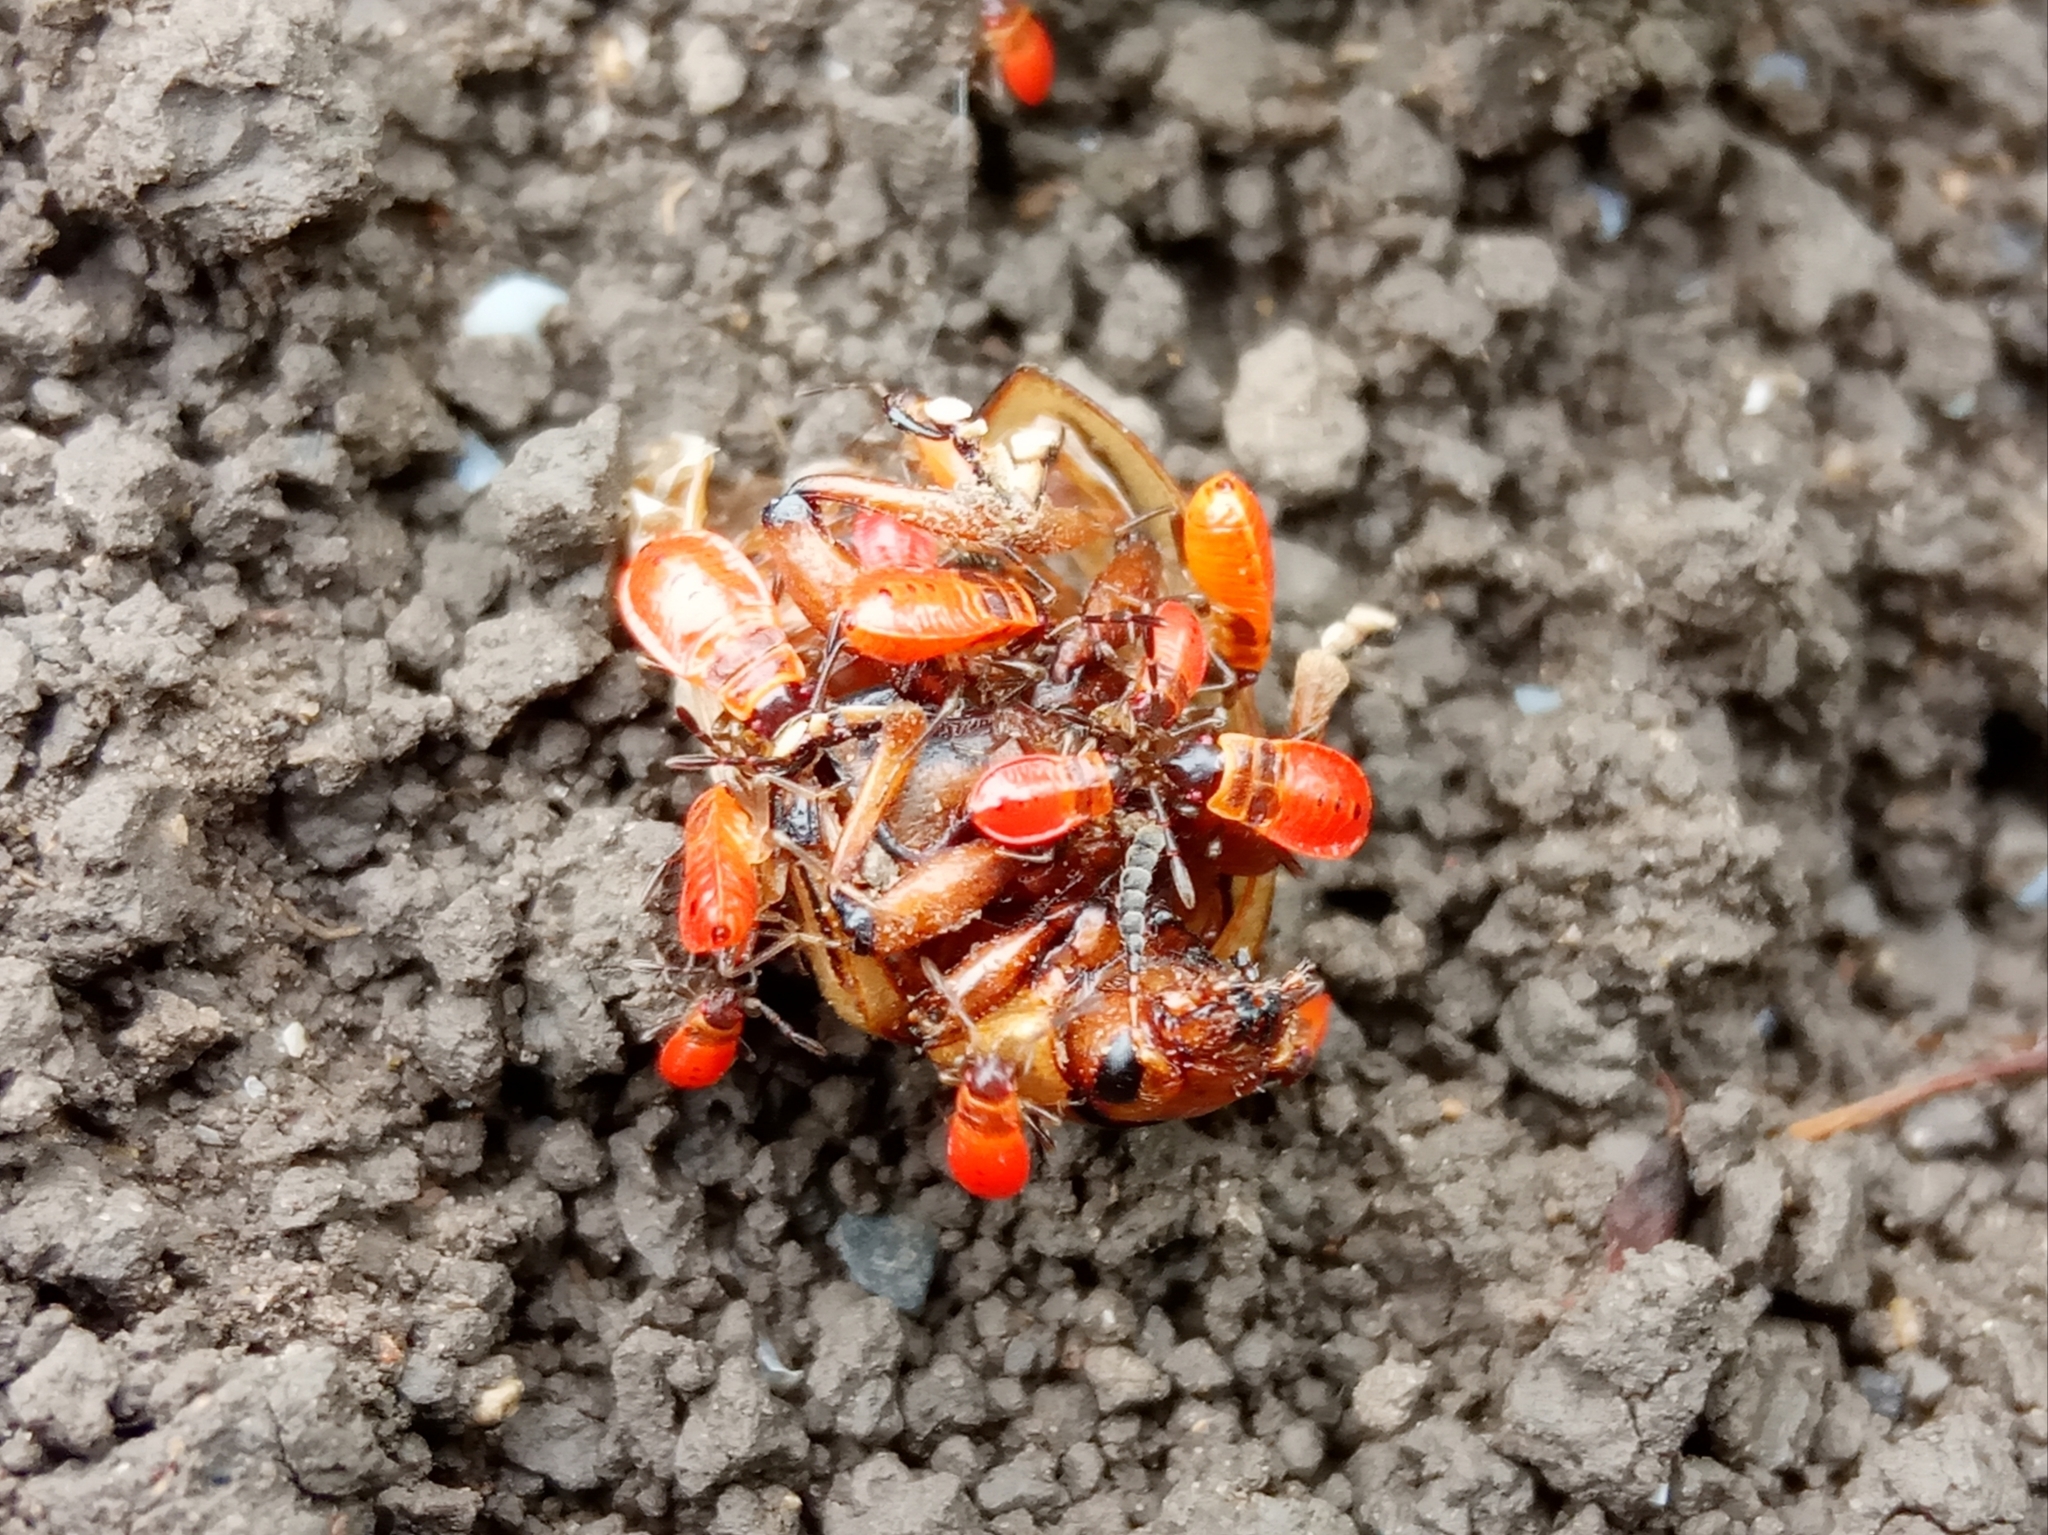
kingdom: Animalia
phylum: Arthropoda
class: Insecta
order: Hemiptera
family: Pyrrhocoridae
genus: Pyrrhocoris
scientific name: Pyrrhocoris apterus
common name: Firebug
